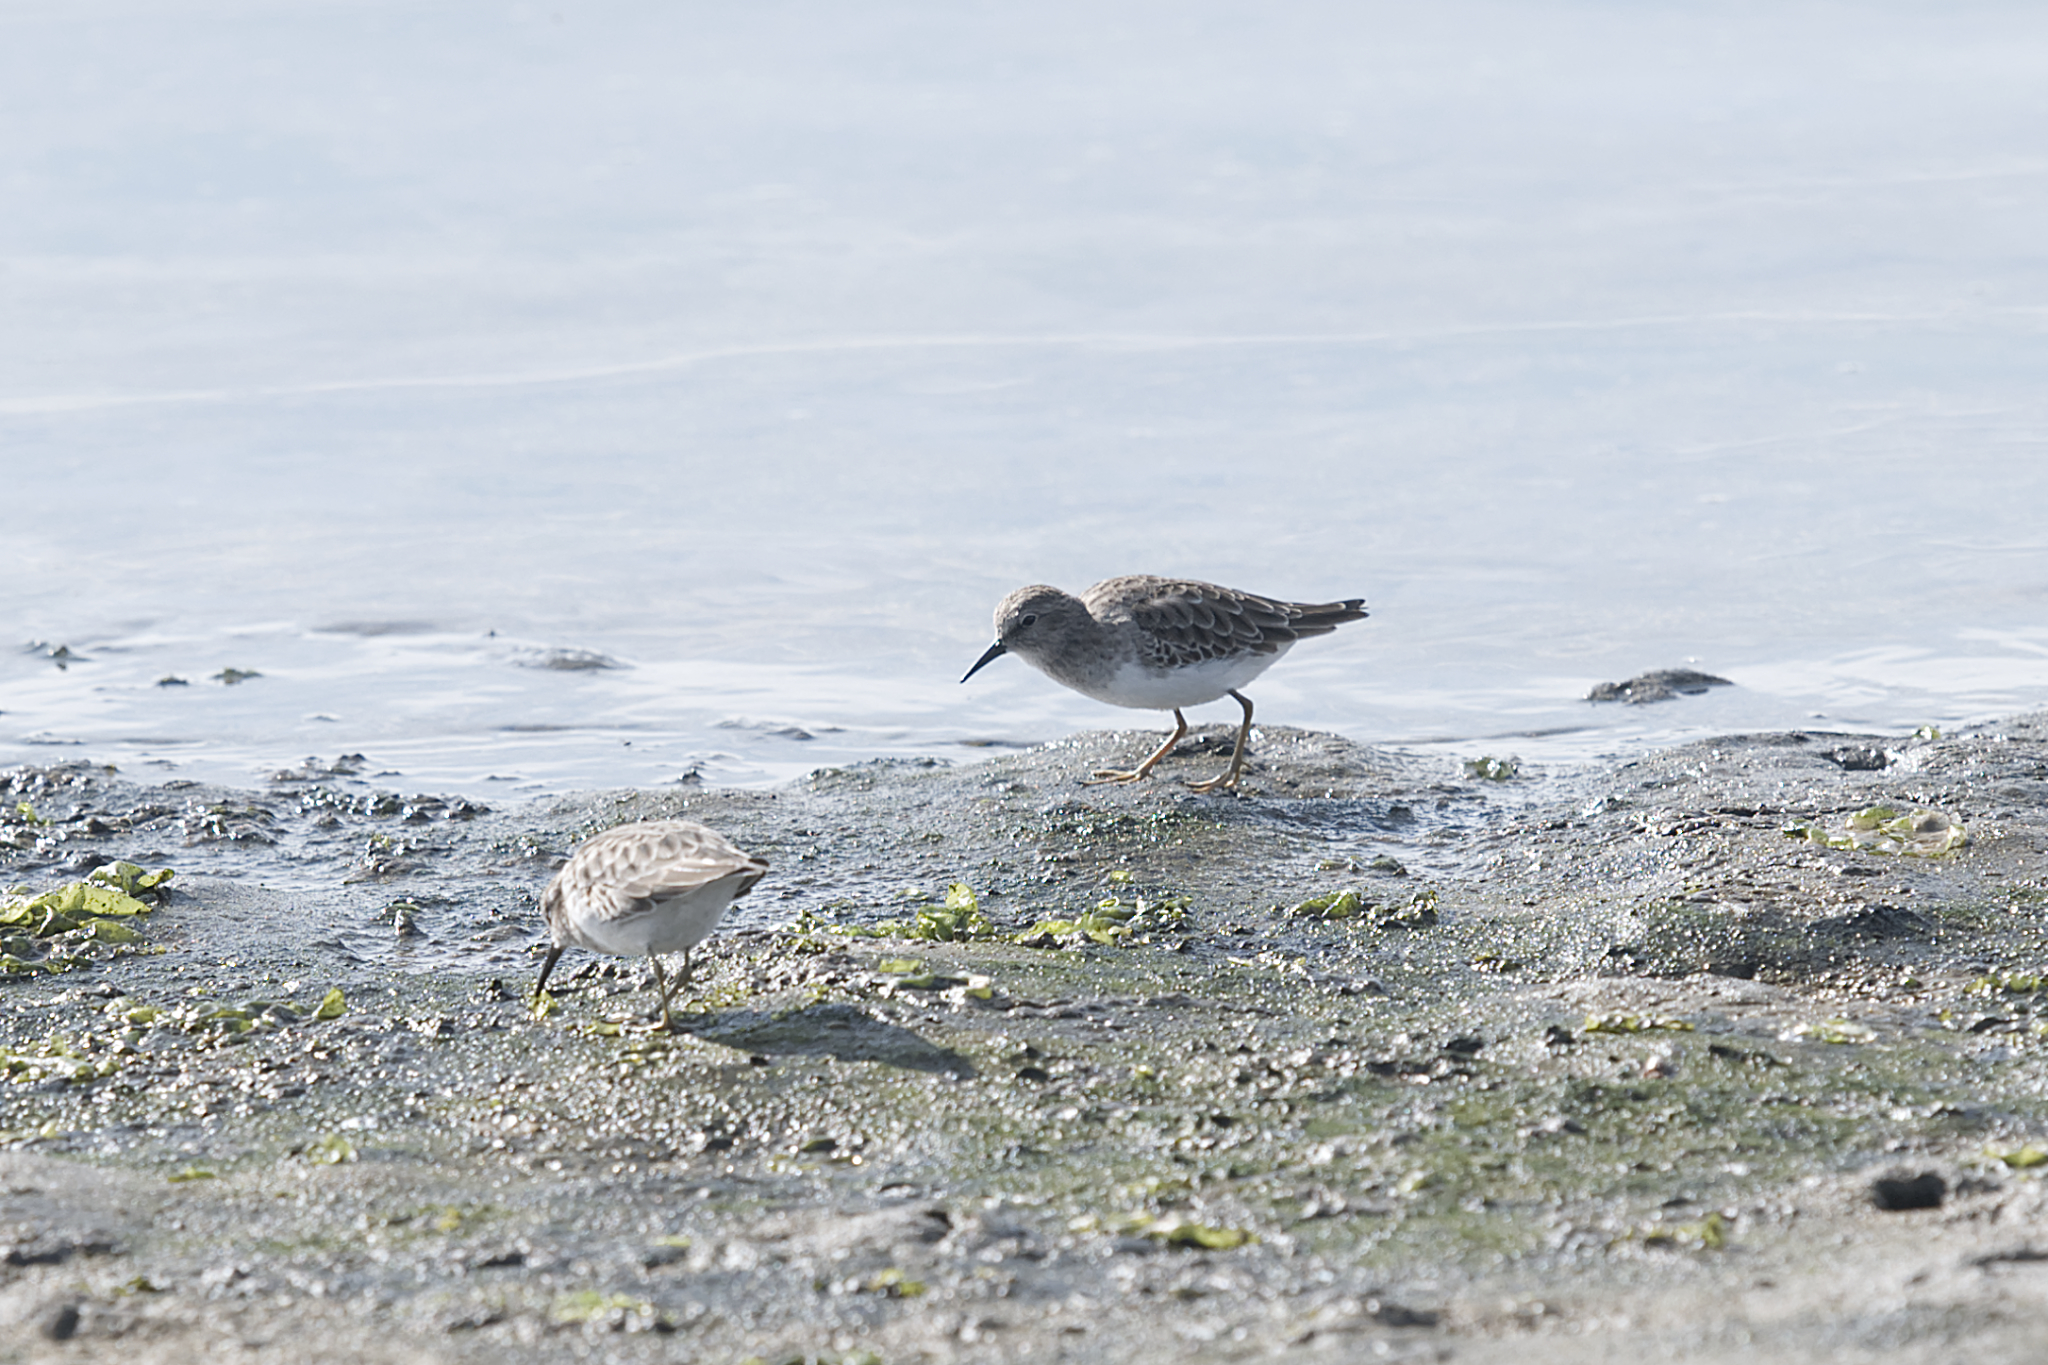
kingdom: Animalia
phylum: Chordata
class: Aves
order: Charadriiformes
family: Scolopacidae
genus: Calidris
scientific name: Calidris minutilla
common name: Least sandpiper
